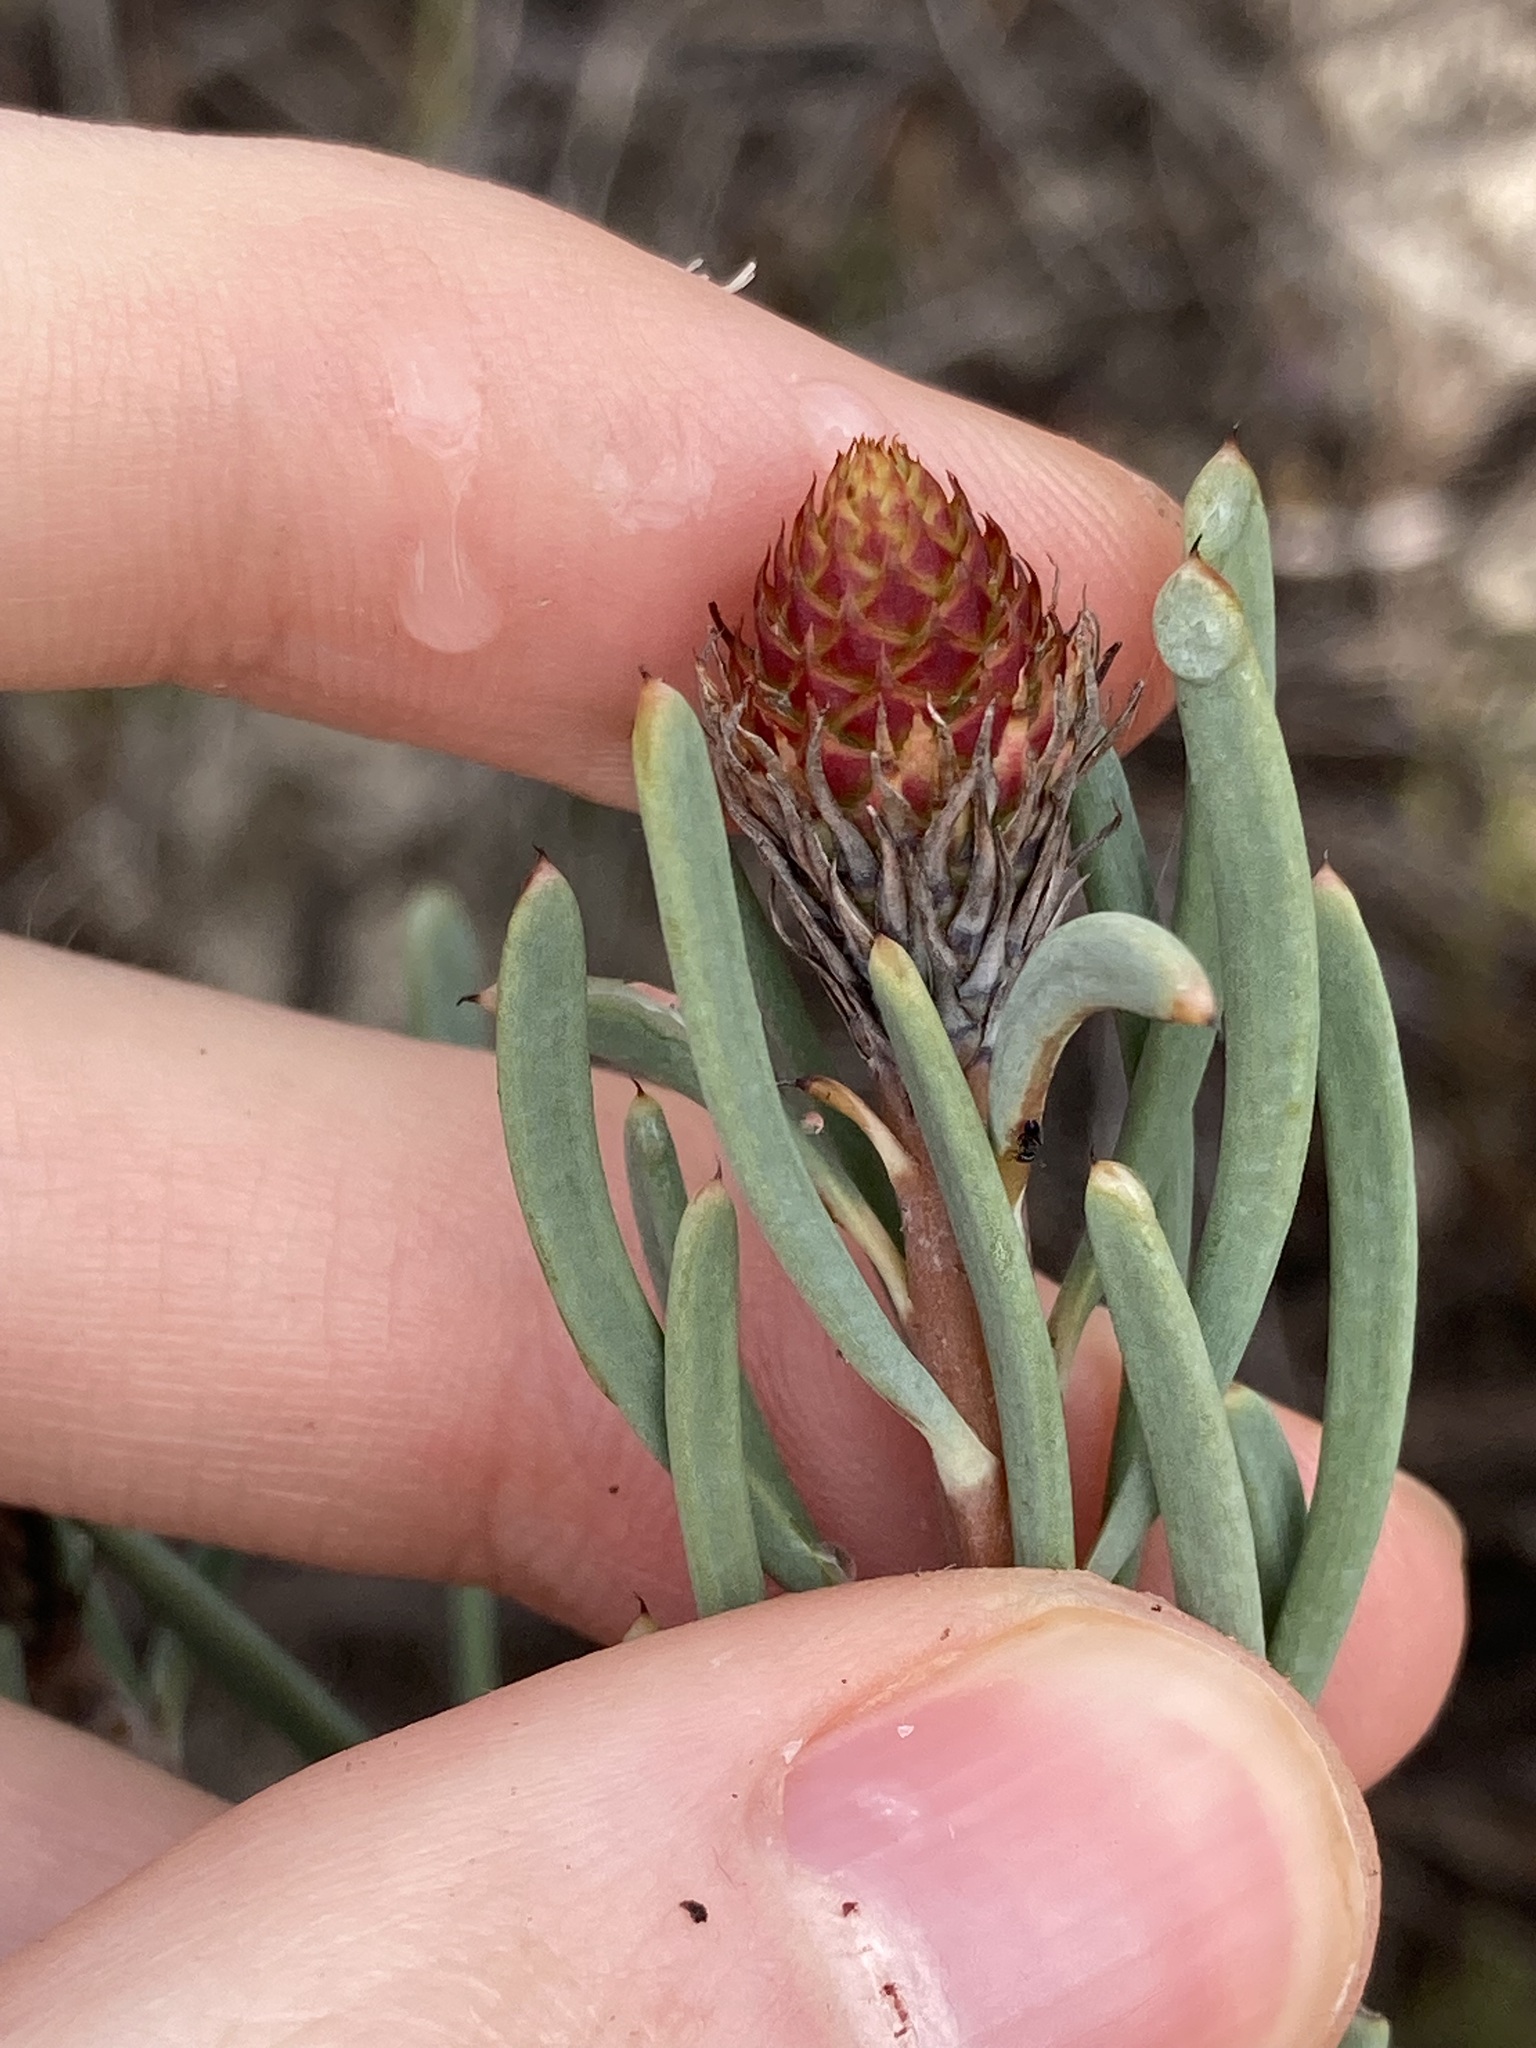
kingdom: Plantae
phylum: Tracheophyta
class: Magnoliopsida
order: Proteales
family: Proteaceae
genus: Petrophile
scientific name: Petrophile linearis
